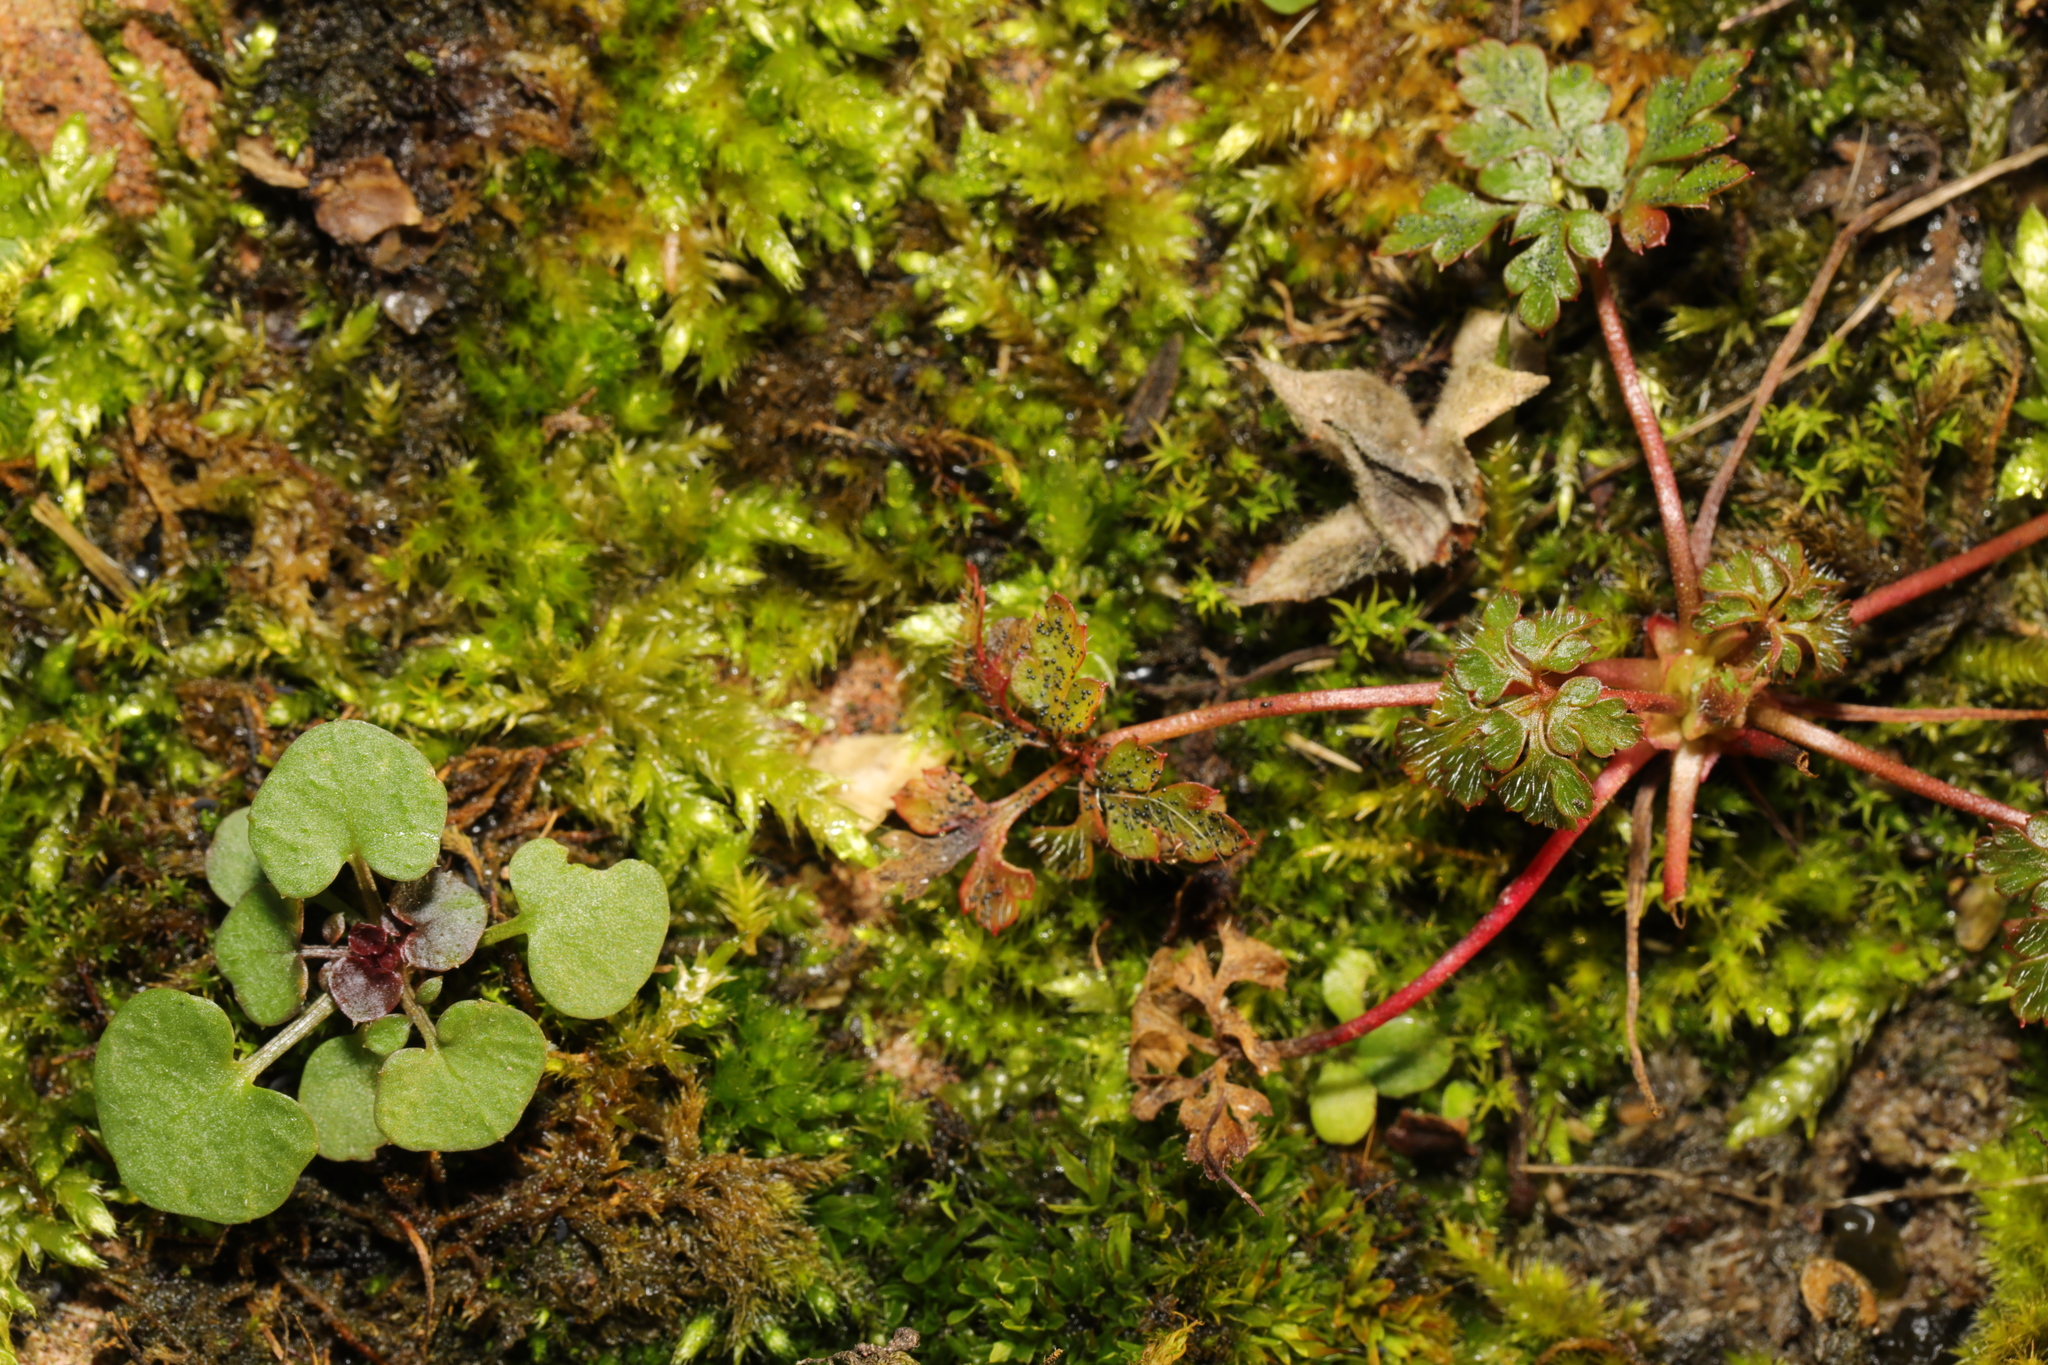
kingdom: Plantae
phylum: Tracheophyta
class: Magnoliopsida
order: Geraniales
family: Geraniaceae
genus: Geranium
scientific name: Geranium robertianum
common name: Herb-robert
